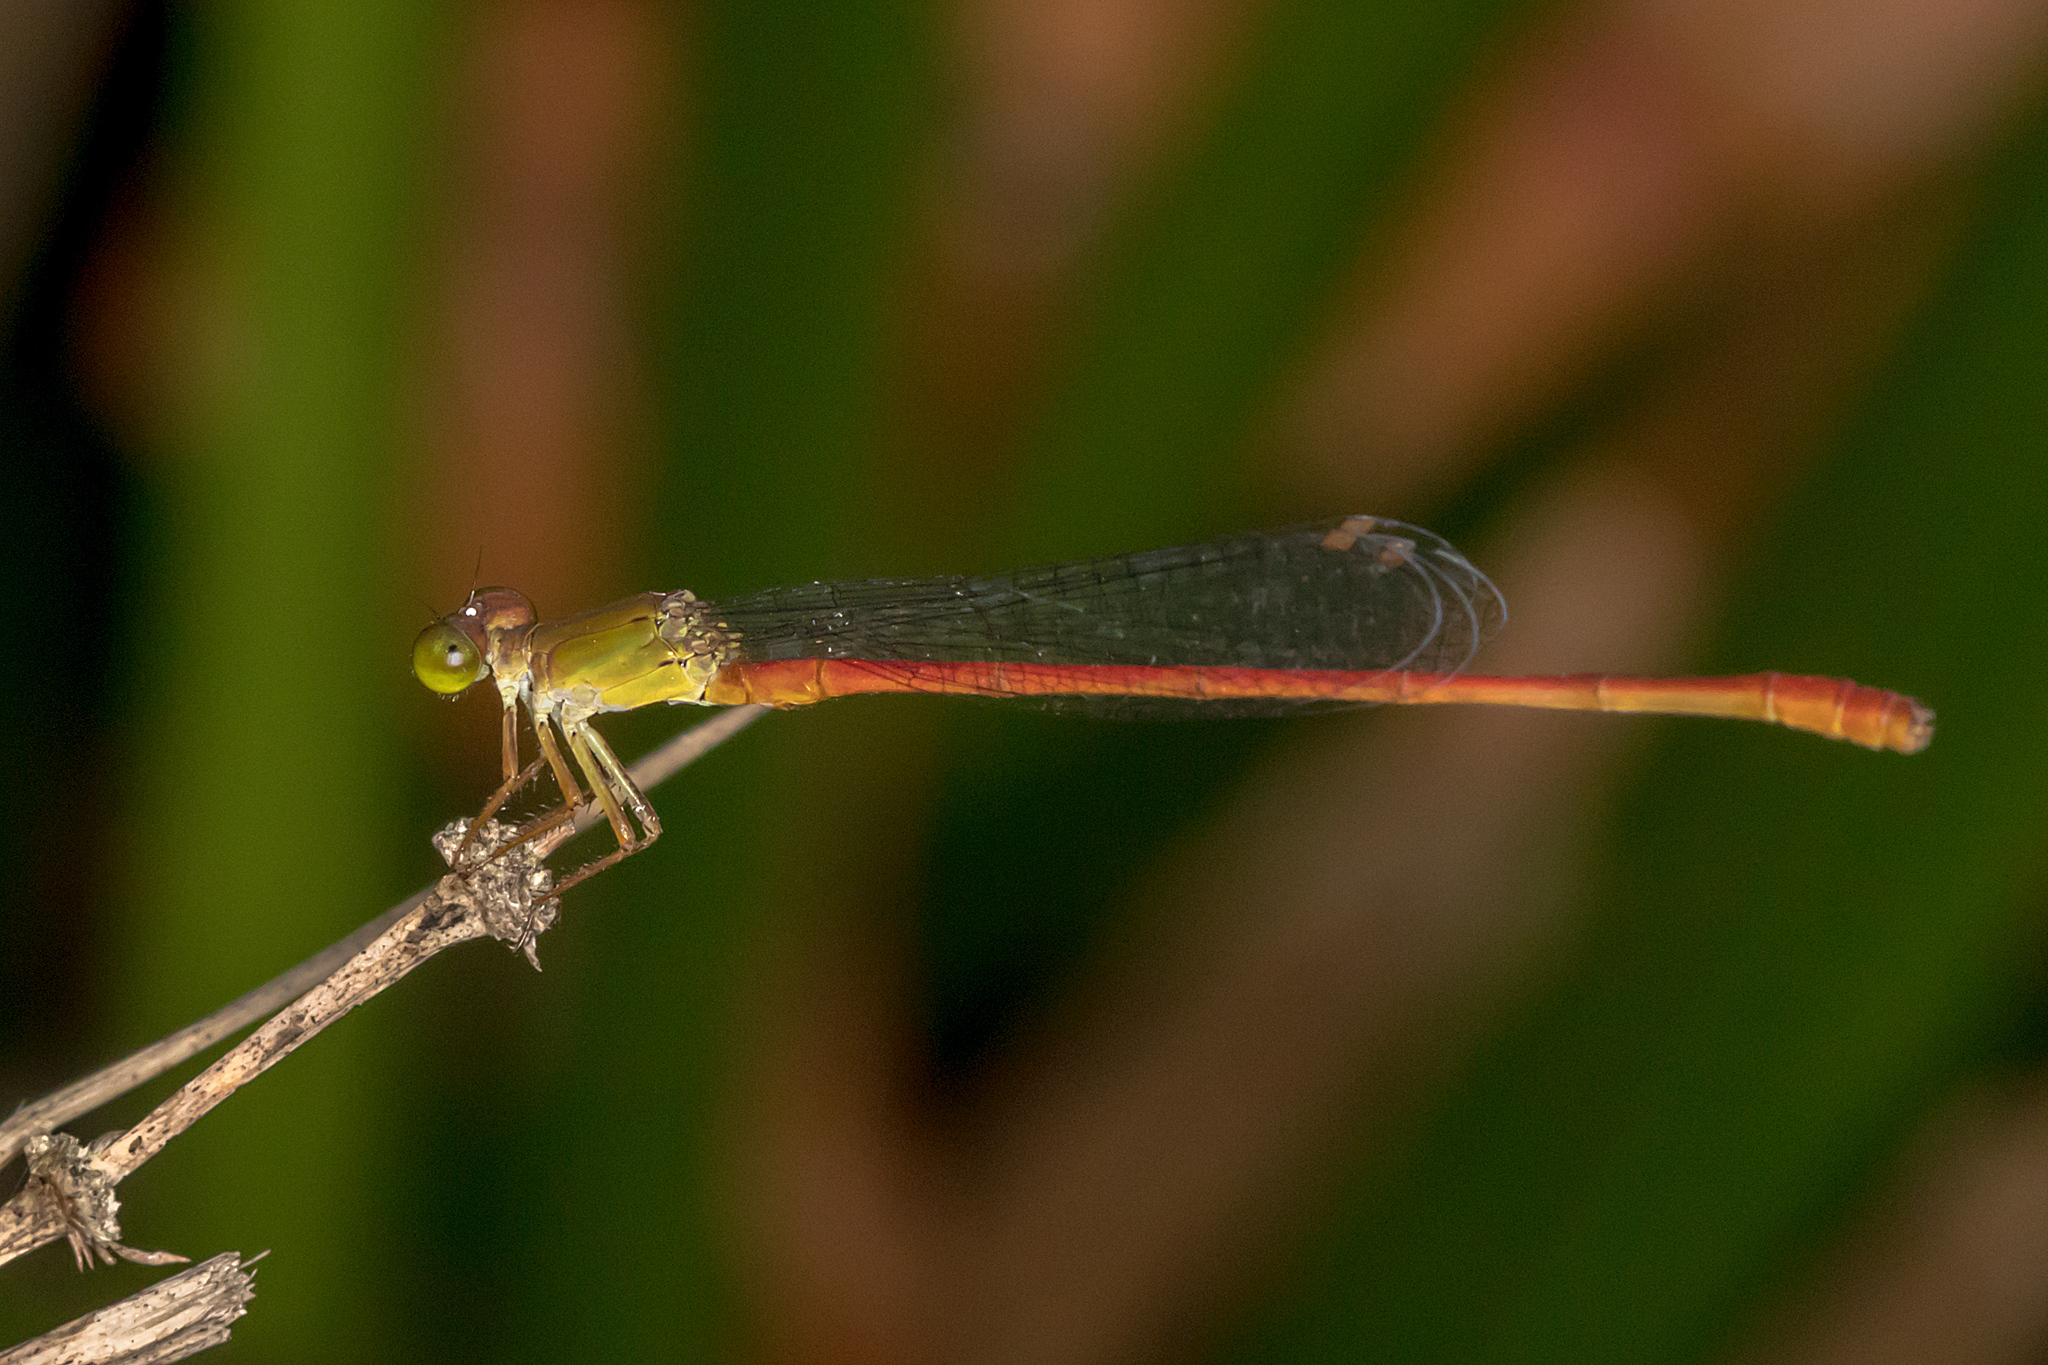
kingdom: Animalia
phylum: Arthropoda
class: Insecta
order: Odonata
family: Coenagrionidae
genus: Ceriagrion
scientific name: Ceriagrion aeruginosum
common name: Redtail
